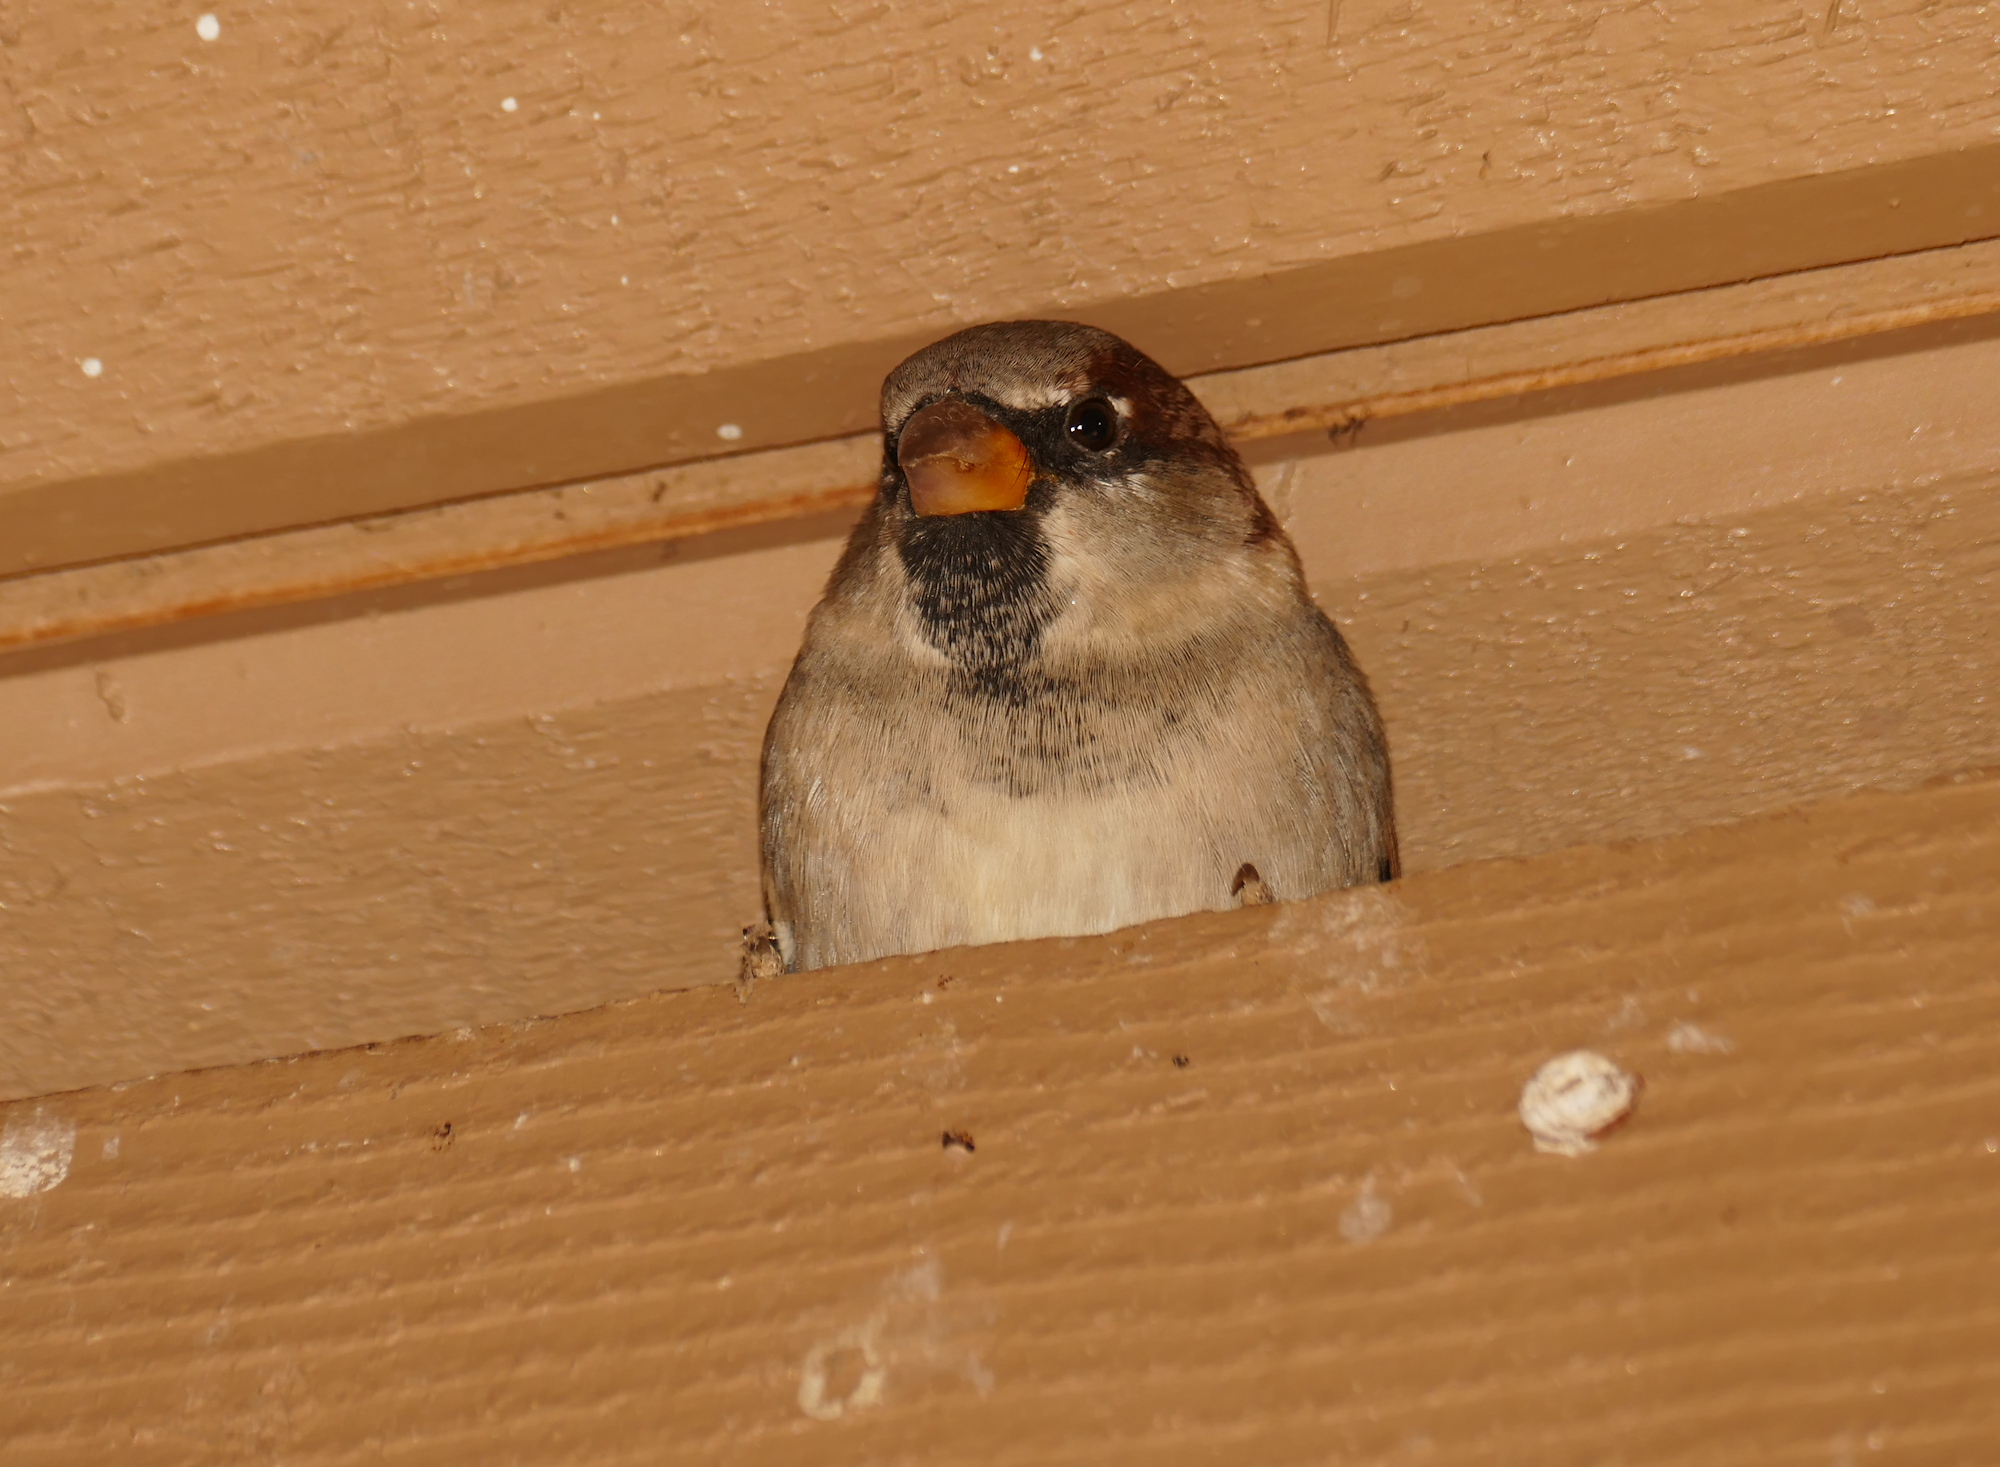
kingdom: Animalia
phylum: Chordata
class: Aves
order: Passeriformes
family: Passeridae
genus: Passer
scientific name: Passer domesticus
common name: House sparrow
